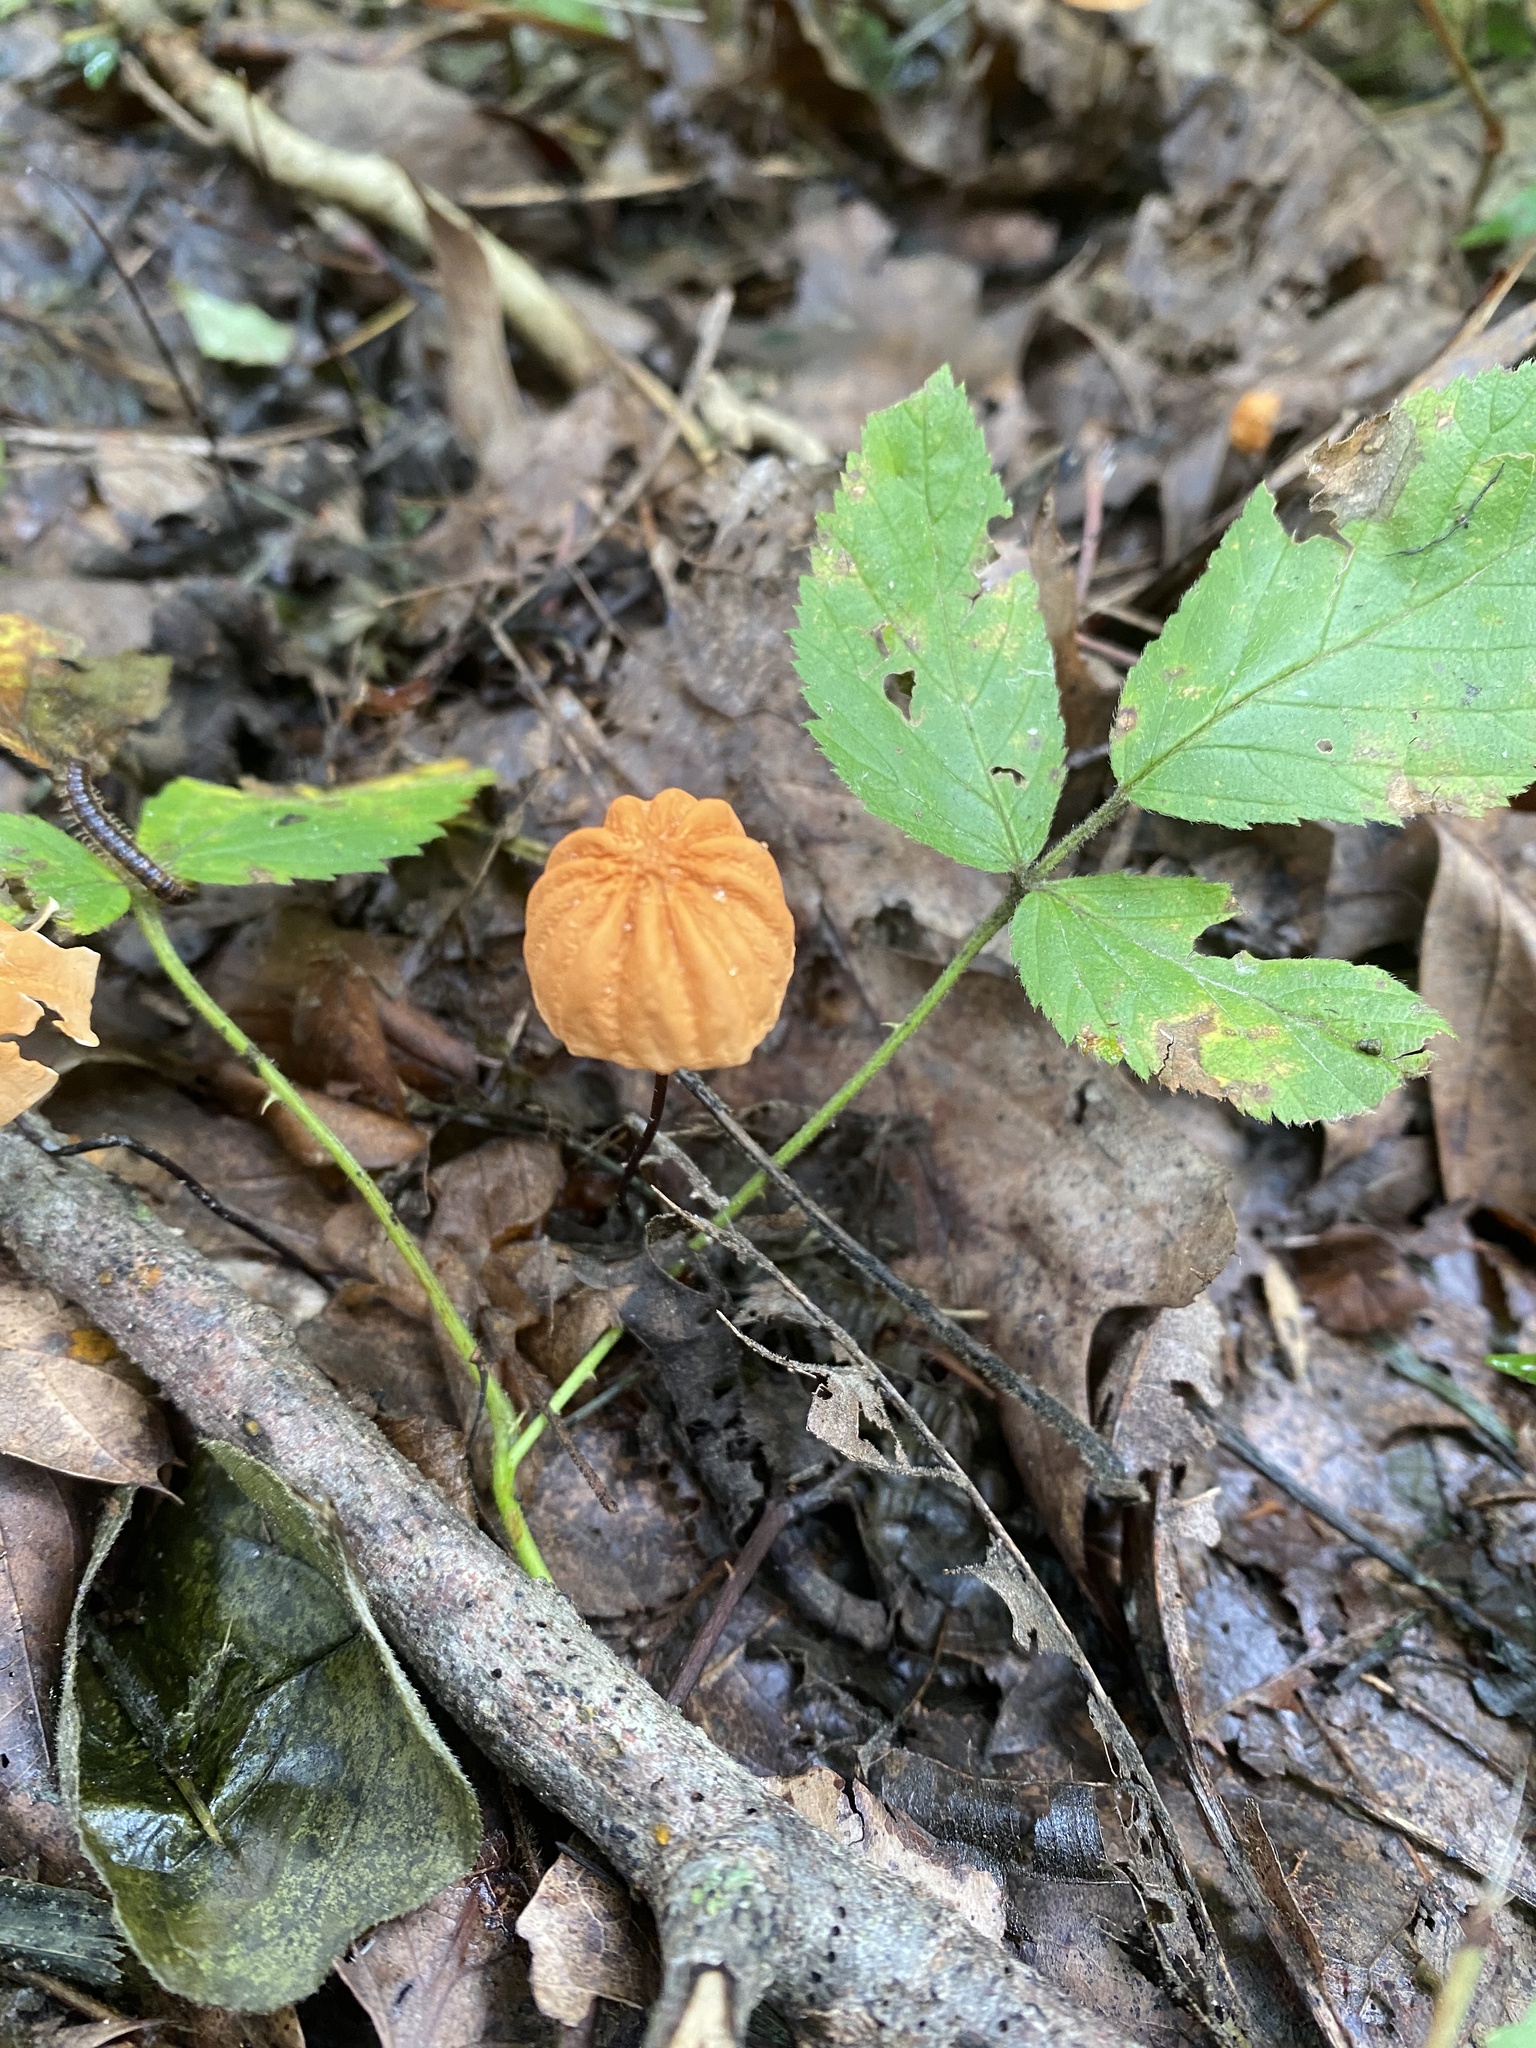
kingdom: Fungi
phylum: Basidiomycota
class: Agaricomycetes
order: Agaricales
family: Marasmiaceae
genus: Marasmius
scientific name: Marasmius siccus
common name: Orange pinwheel
